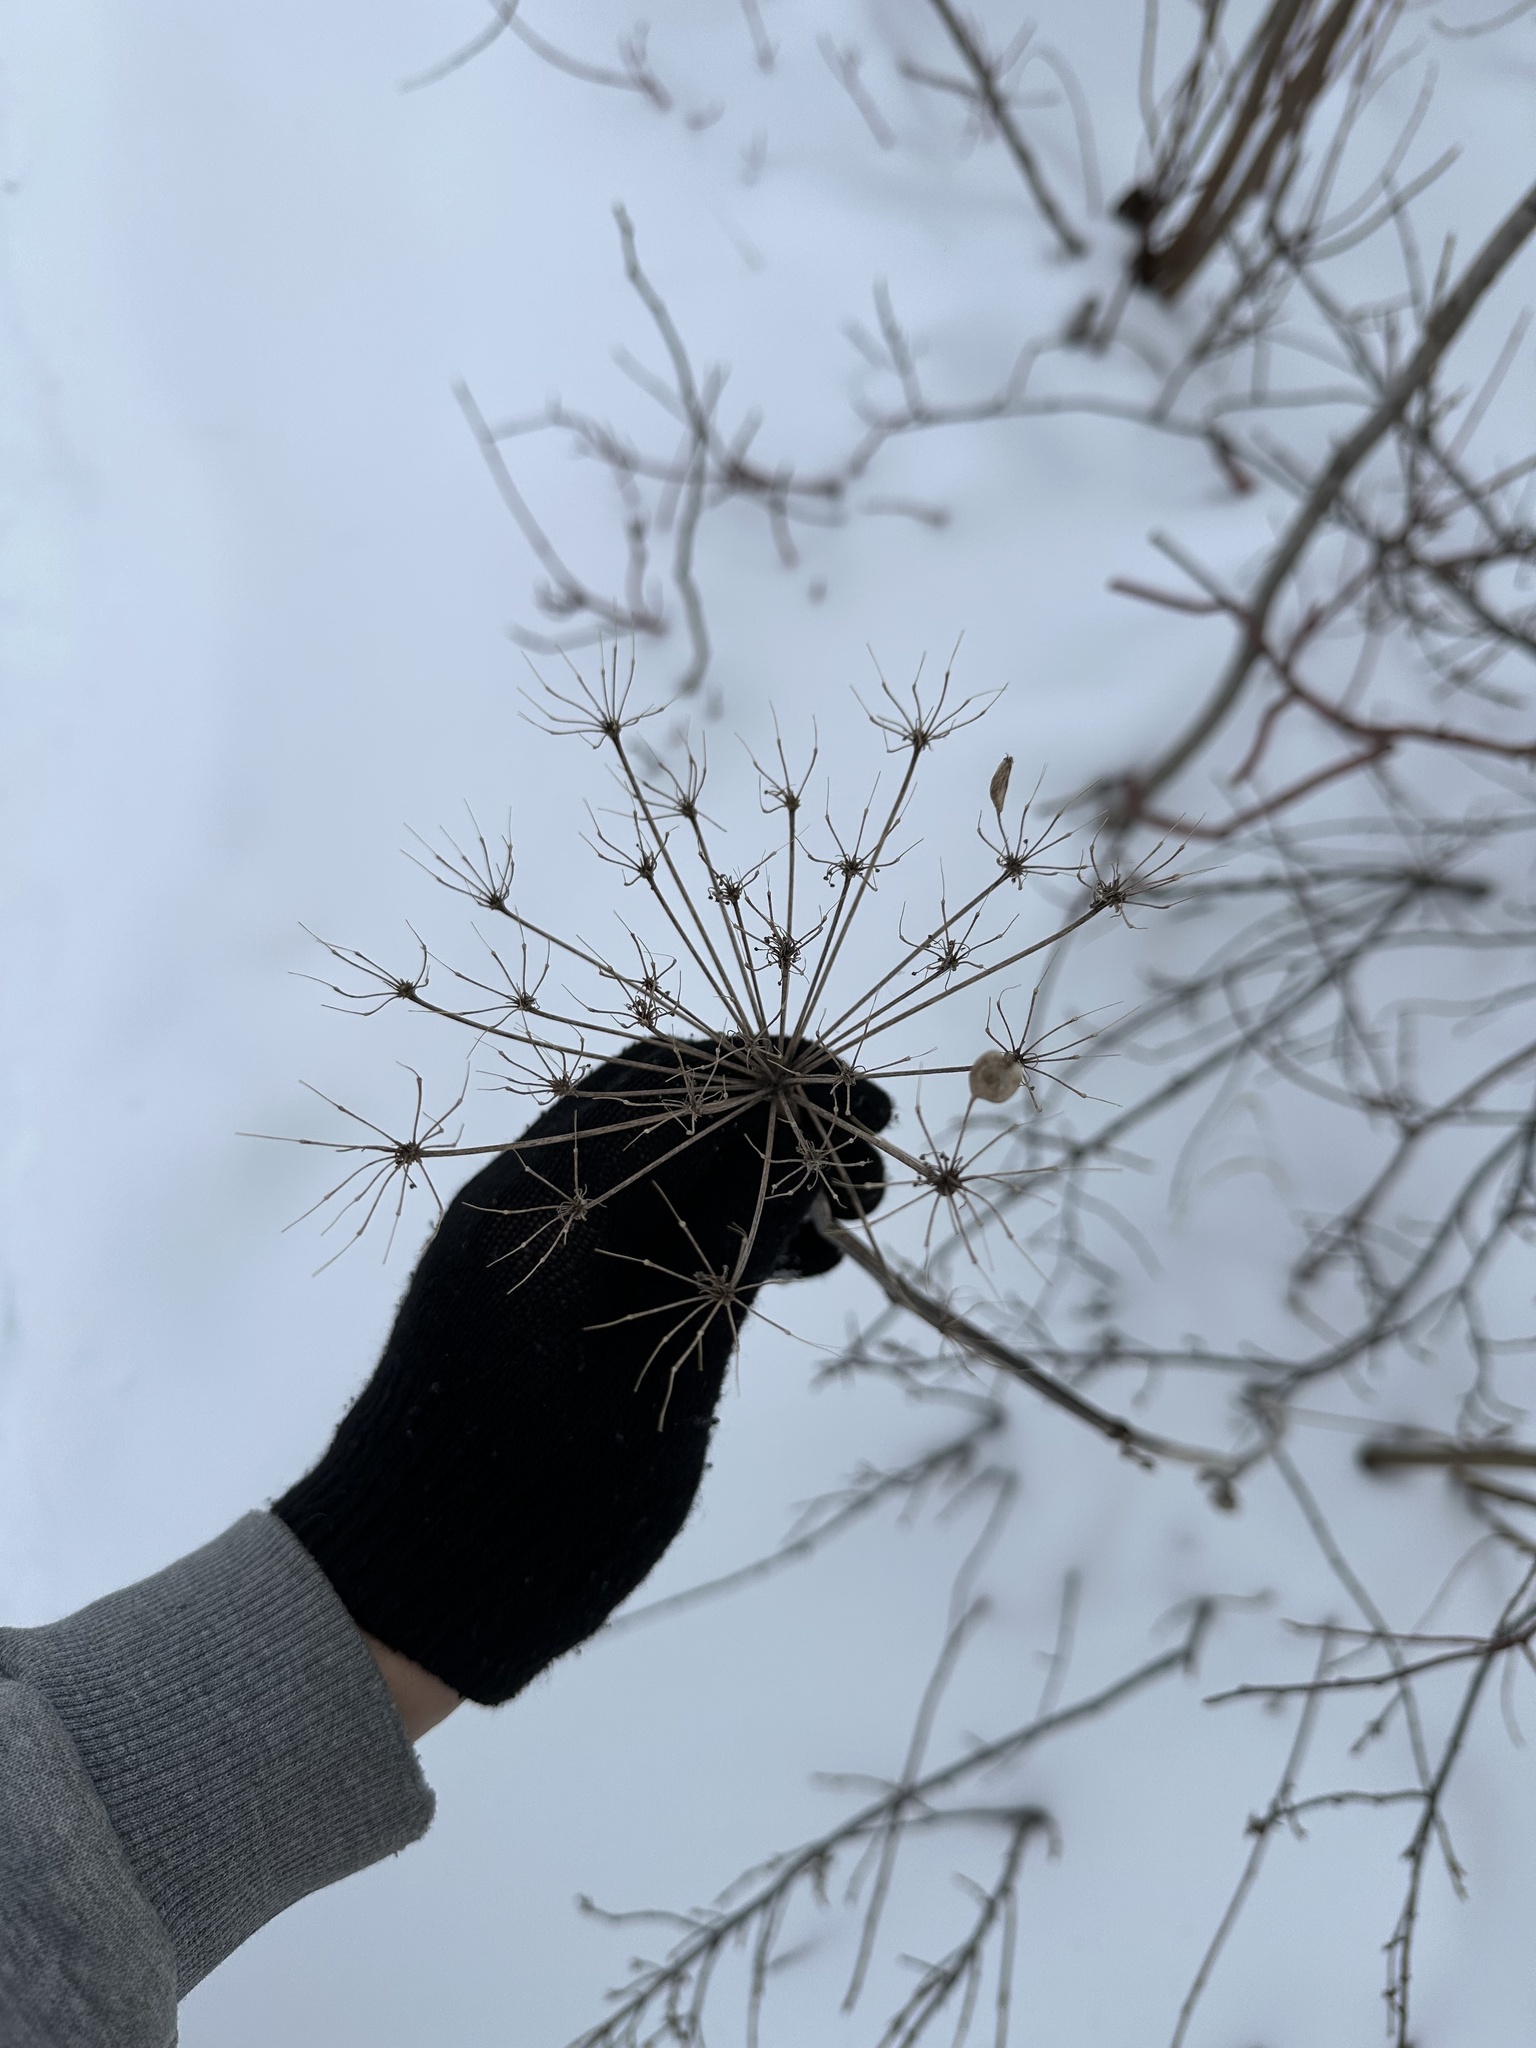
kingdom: Plantae
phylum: Tracheophyta
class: Magnoliopsida
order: Apiales
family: Apiaceae
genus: Heracleum
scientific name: Heracleum maximum
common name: American cow parsnip
